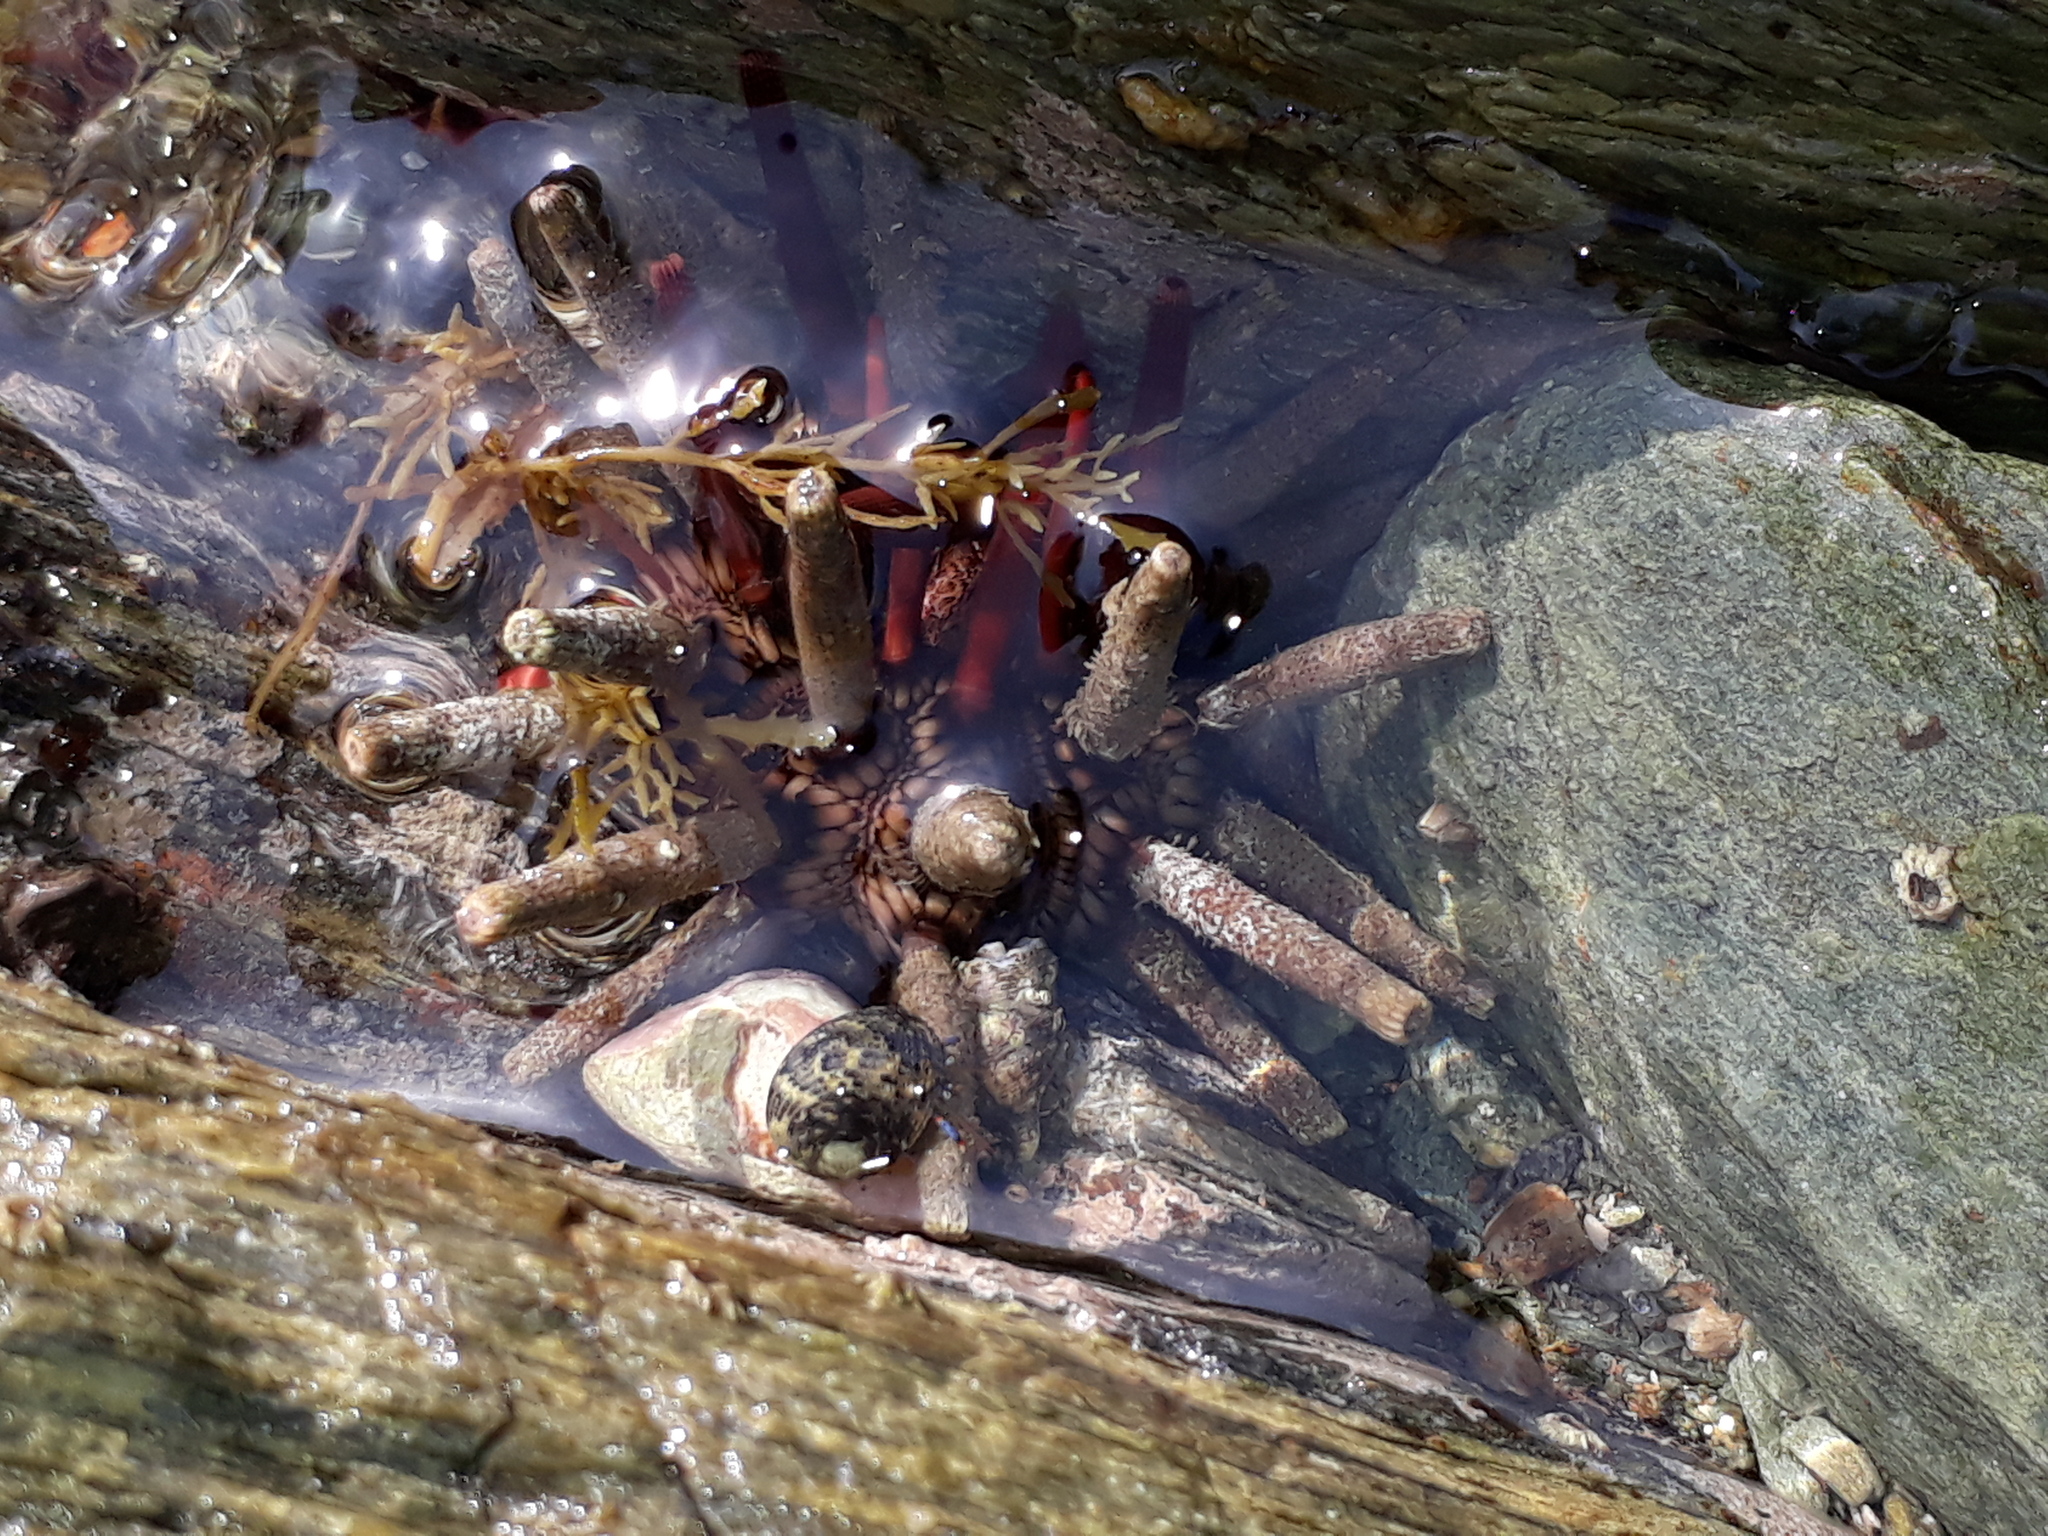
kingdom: Animalia
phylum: Echinodermata
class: Echinoidea
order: Cidaroida
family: Cidaridae
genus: Eucidaris
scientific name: Eucidaris tribuloides
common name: Slate pencil urchin
